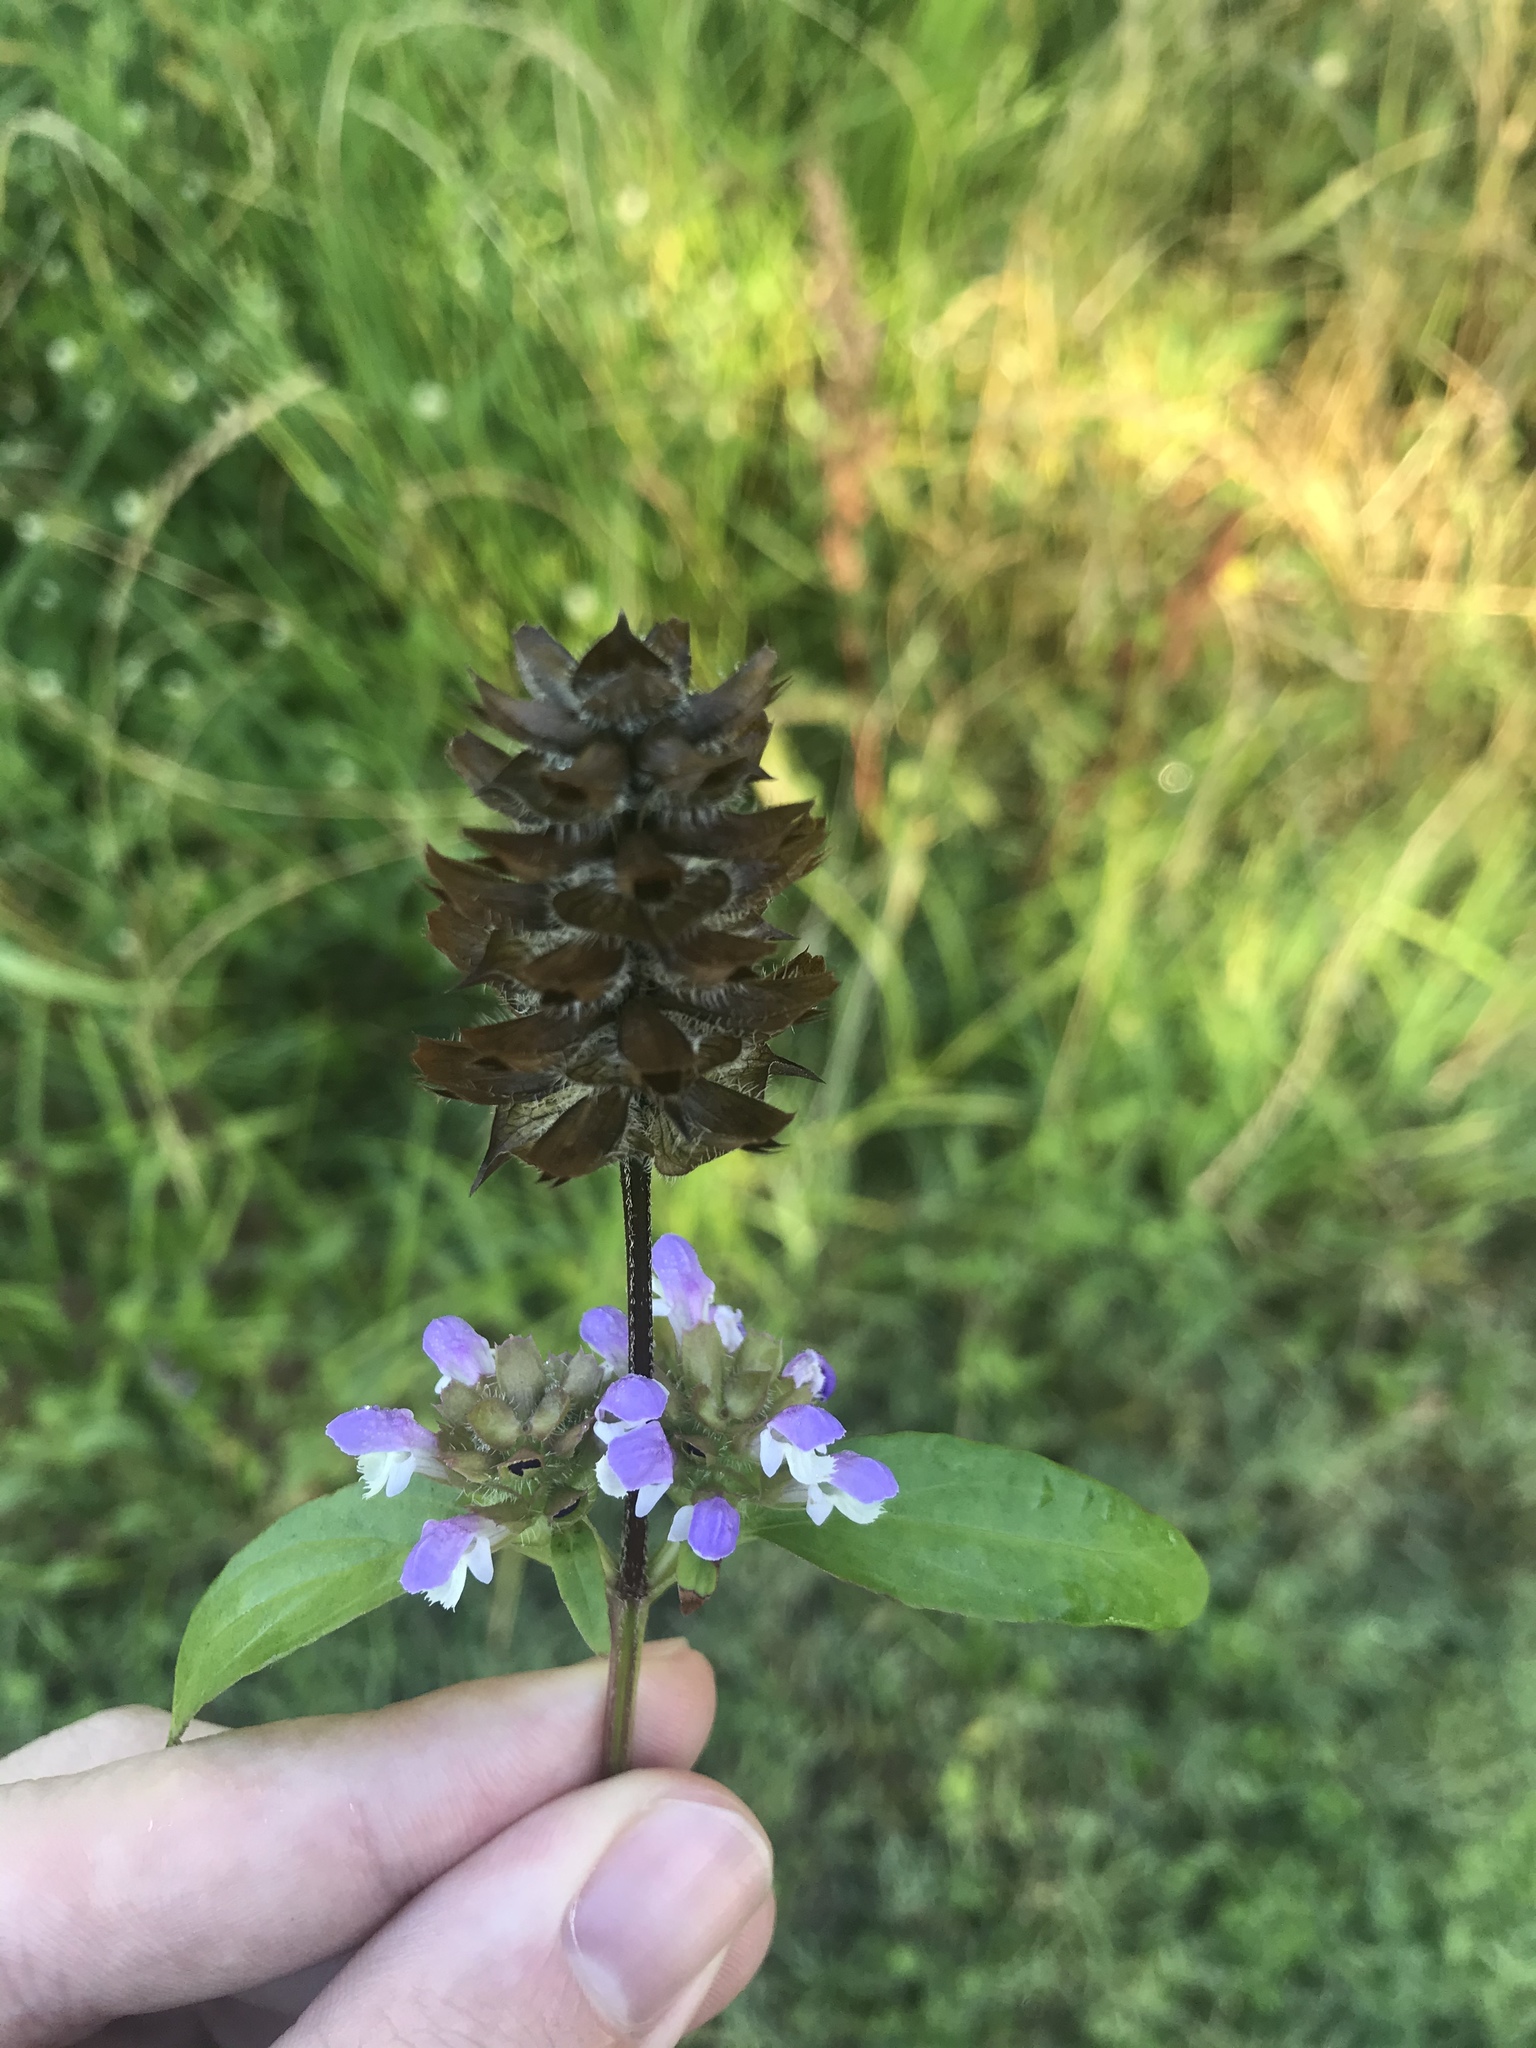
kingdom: Plantae
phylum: Tracheophyta
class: Magnoliopsida
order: Lamiales
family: Lamiaceae
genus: Prunella
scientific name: Prunella vulgaris
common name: Heal-all
